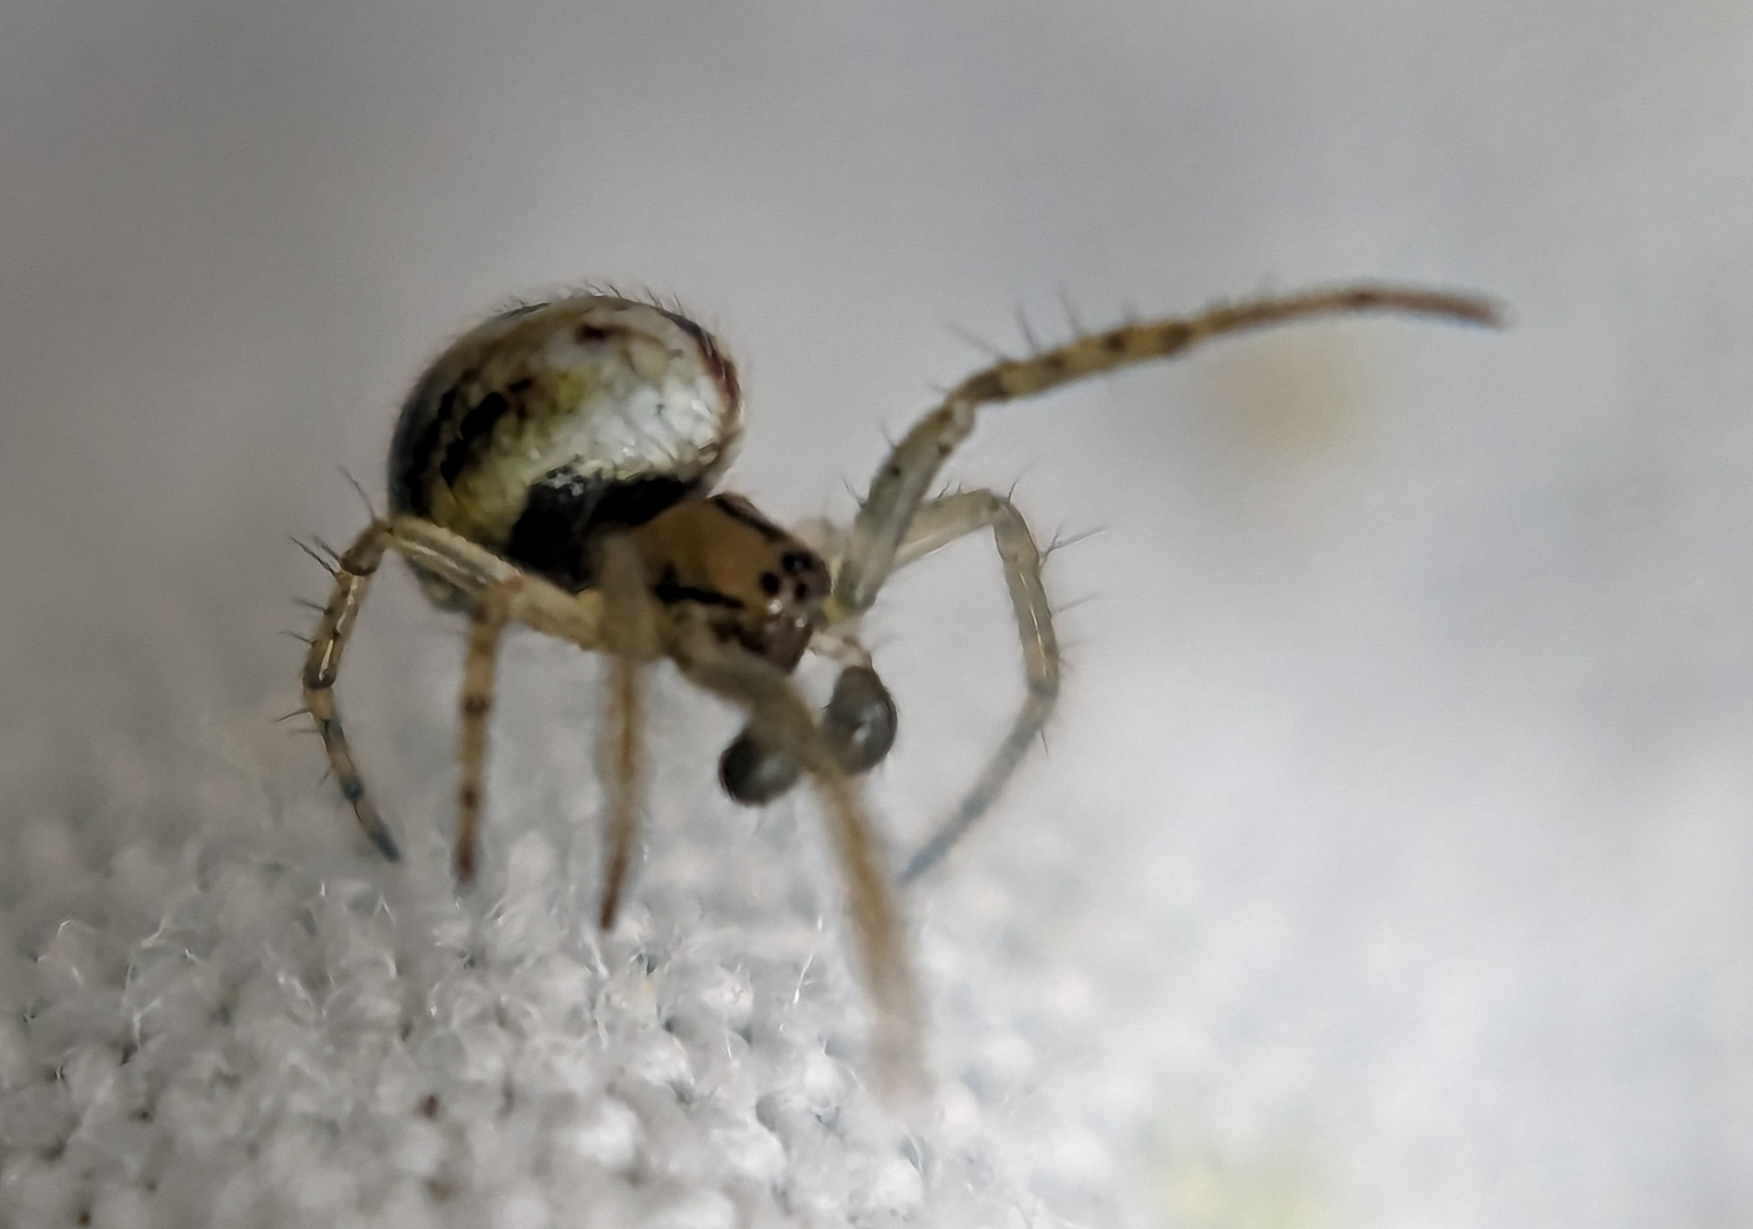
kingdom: Animalia
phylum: Arthropoda
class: Arachnida
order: Araneae
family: Araneidae
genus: Mangora
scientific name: Mangora acalypha
